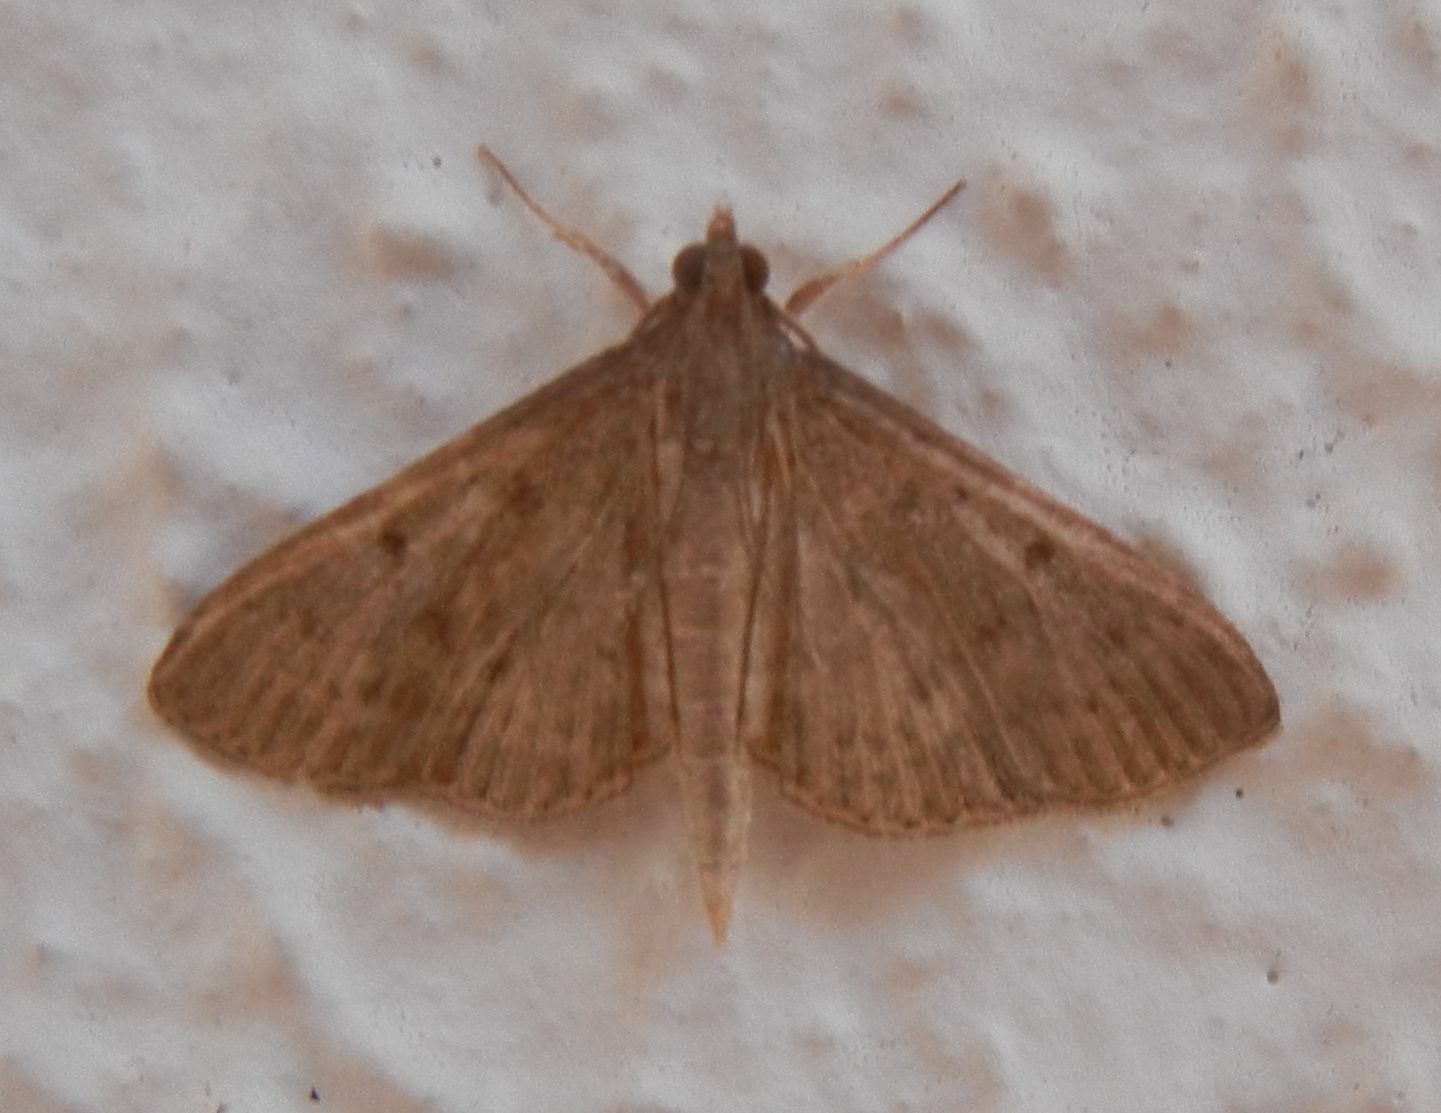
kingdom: Animalia
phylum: Arthropoda
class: Insecta
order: Lepidoptera
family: Crambidae
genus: Herpetogramma
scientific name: Herpetogramma licarsisalis
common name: Grass webworm
